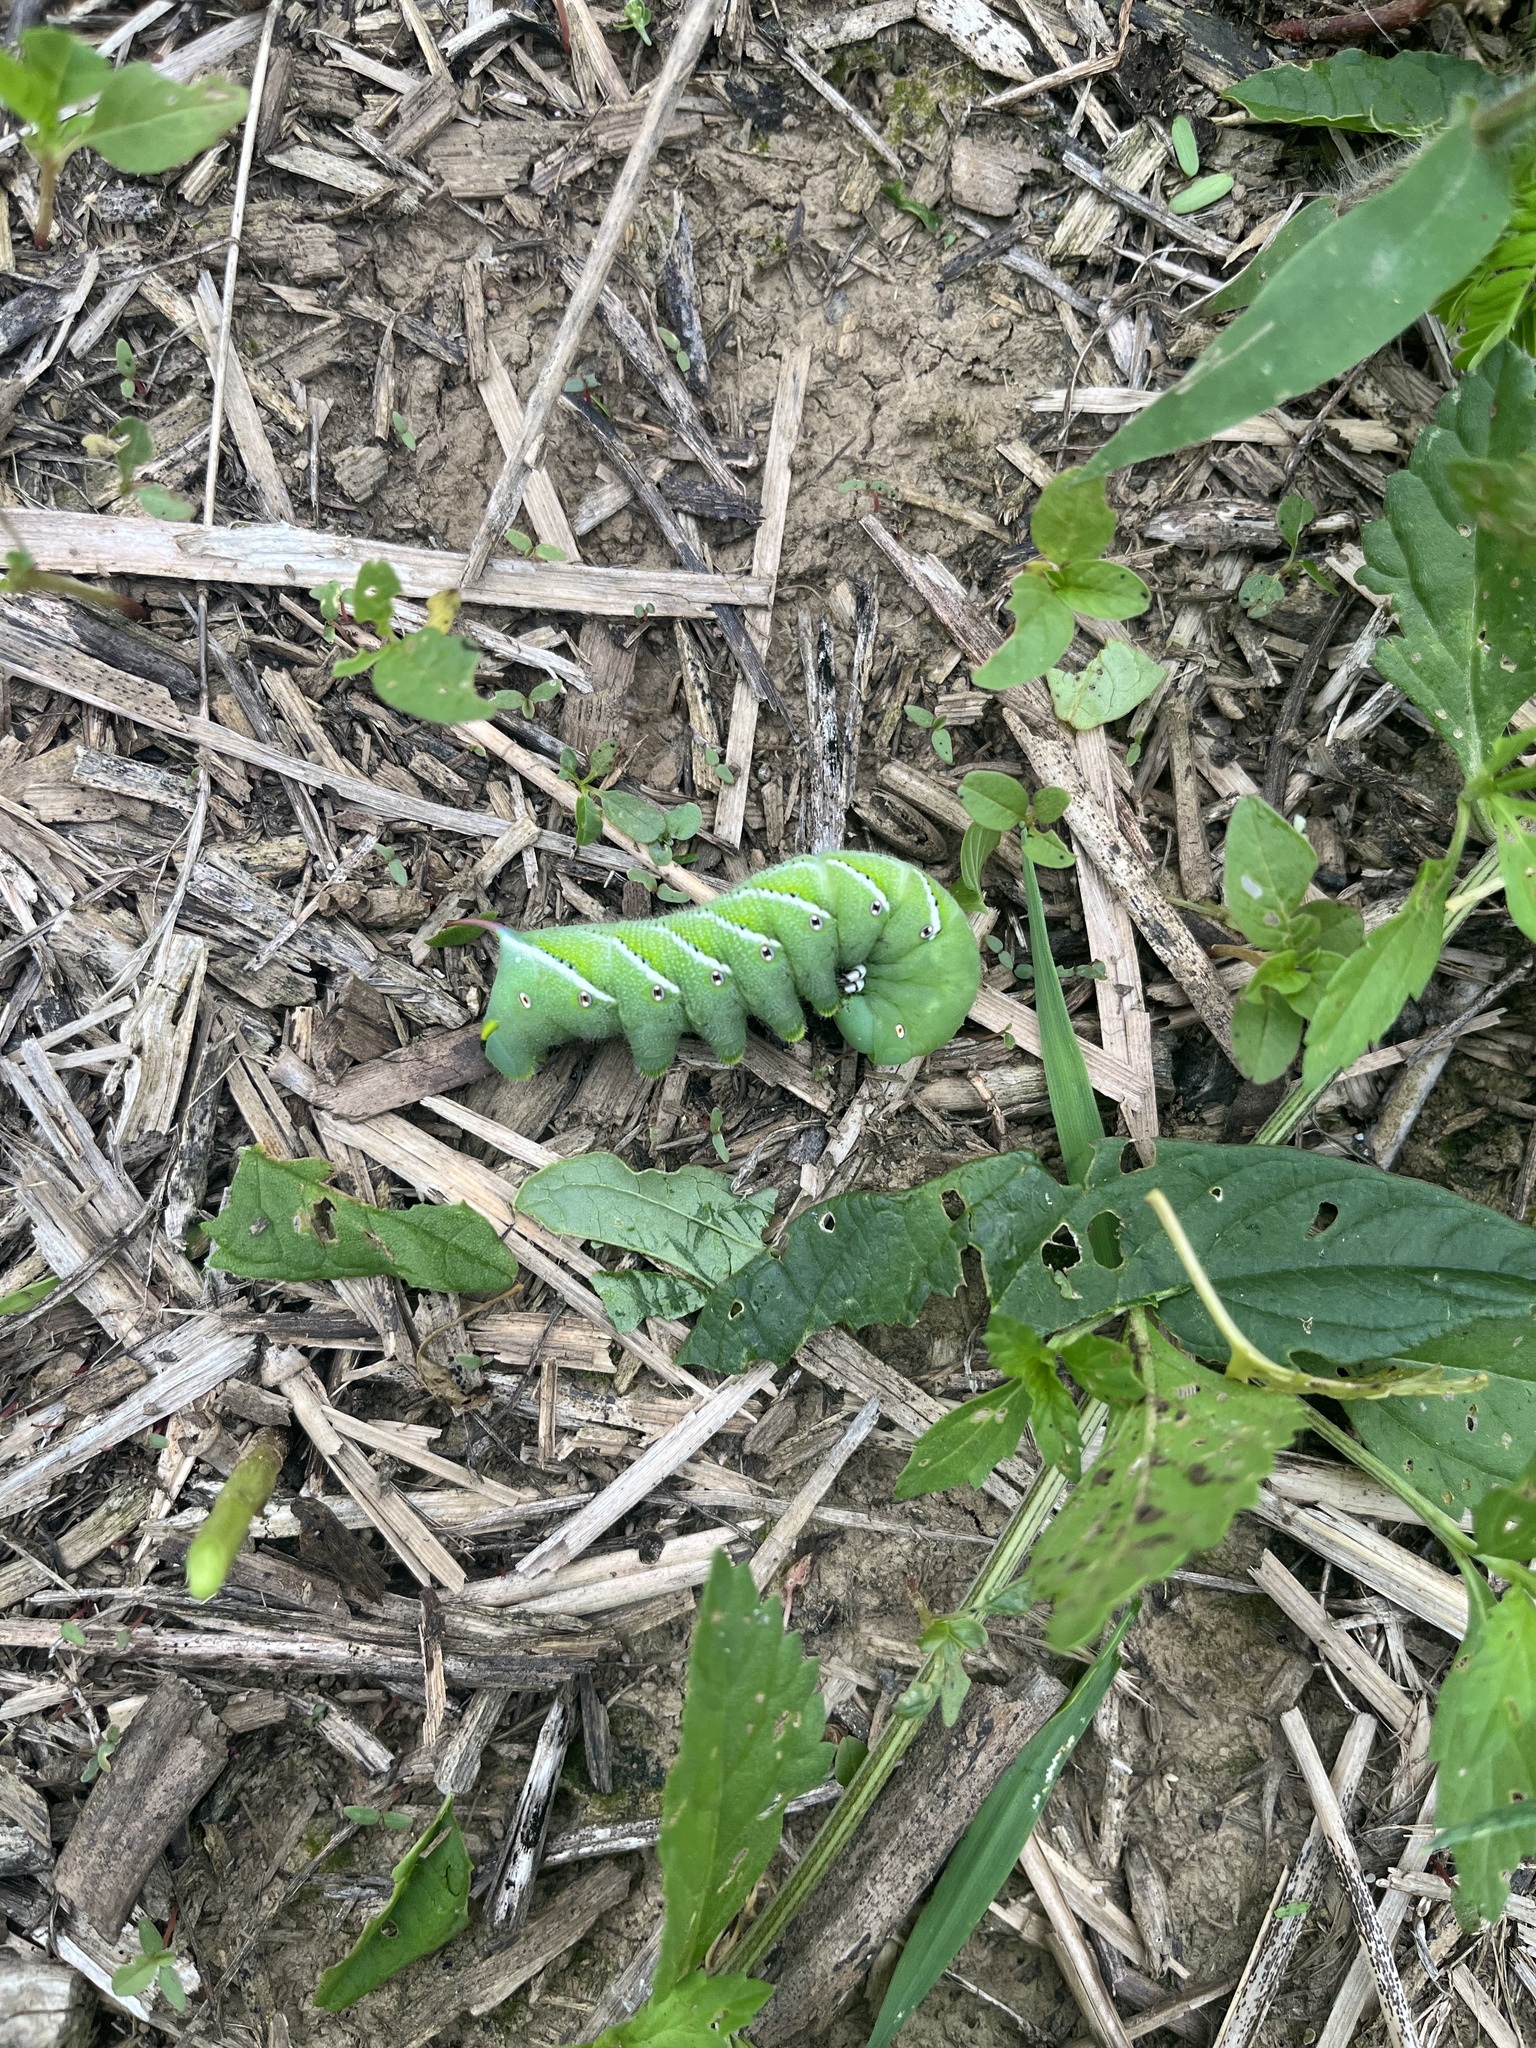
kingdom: Animalia
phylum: Arthropoda
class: Insecta
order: Lepidoptera
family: Sphingidae
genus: Manduca
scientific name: Manduca sexta
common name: Carolina sphinx
